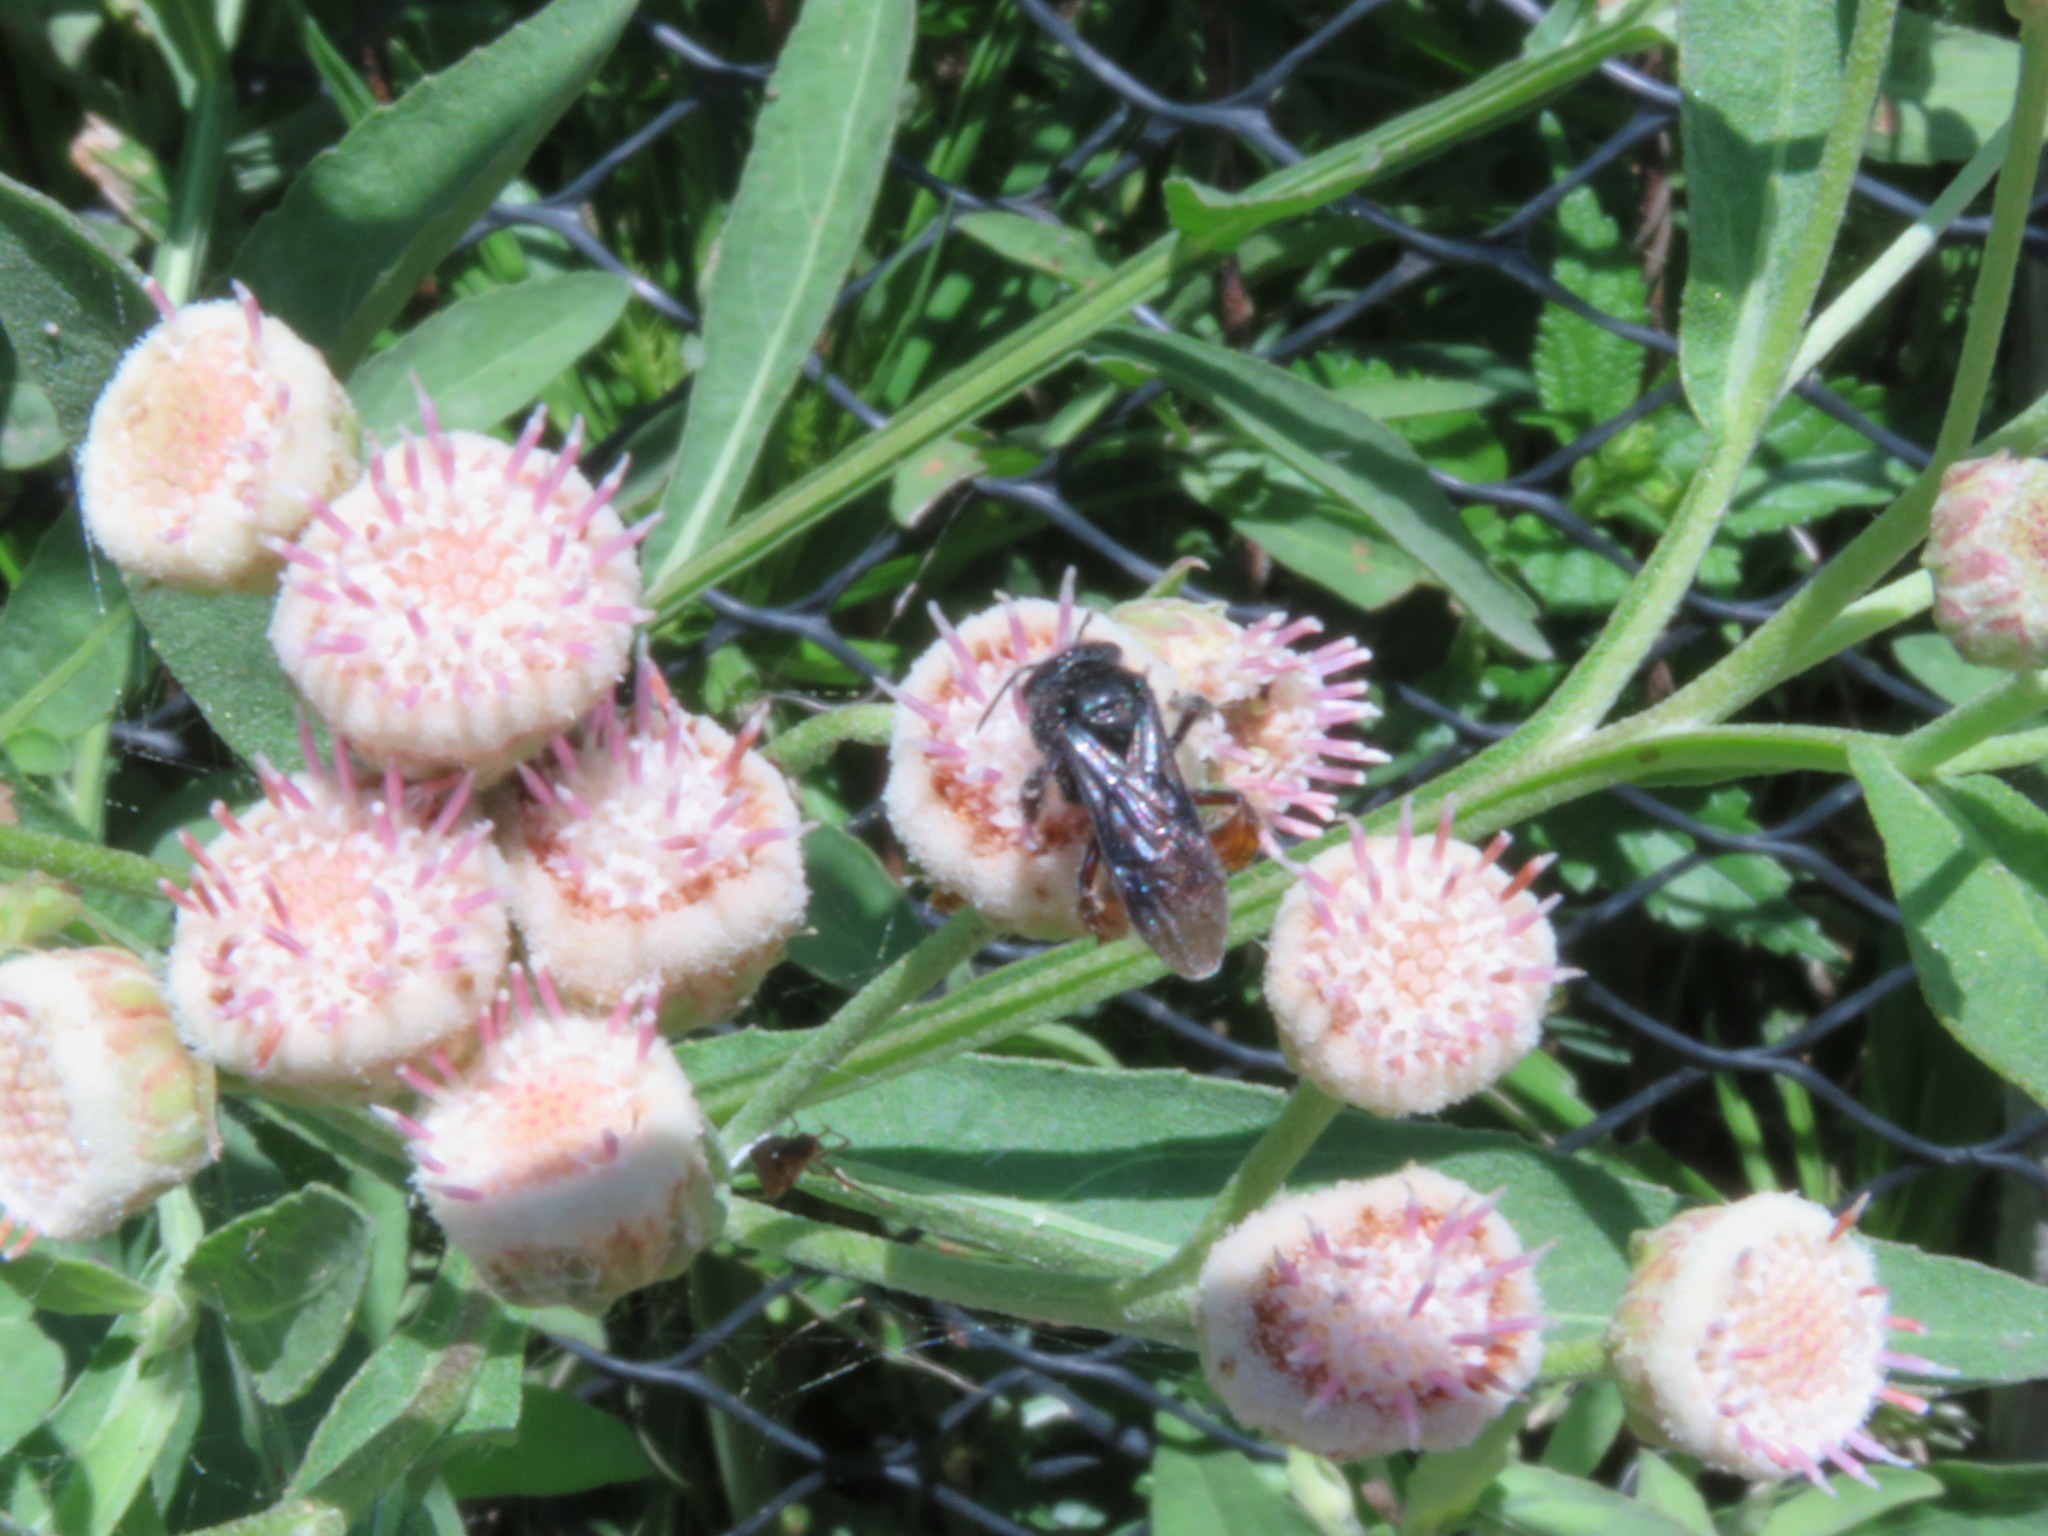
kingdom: Animalia
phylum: Arthropoda
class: Insecta
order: Hymenoptera
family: Apidae
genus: Trigona
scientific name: Trigona spinipes
